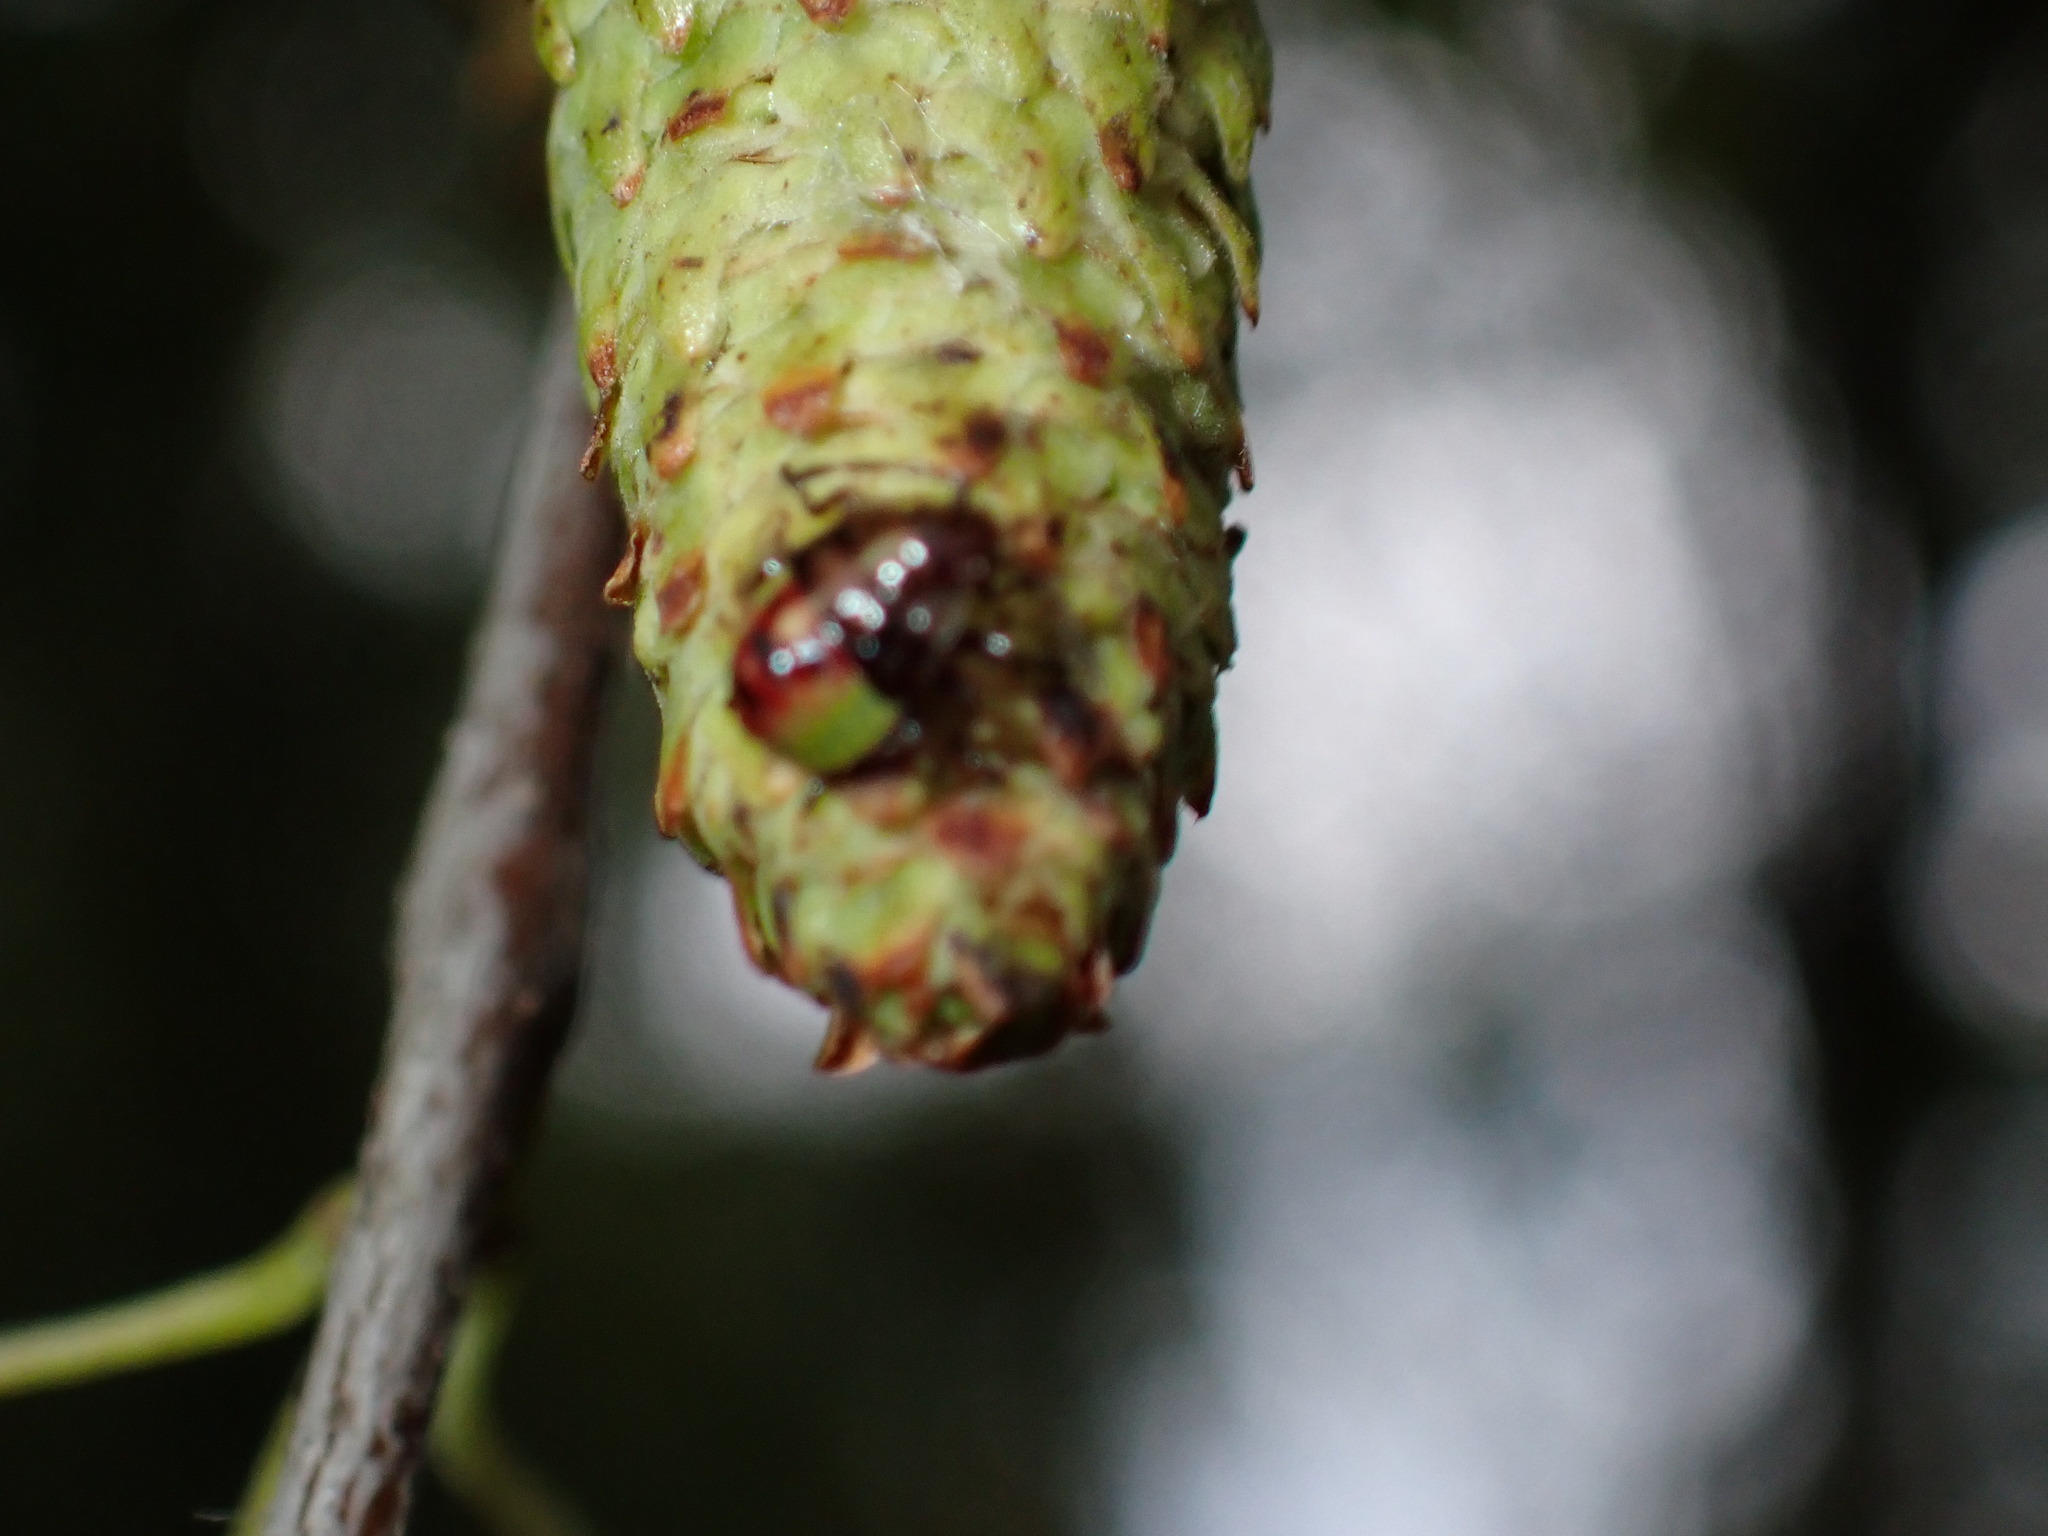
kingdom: Animalia
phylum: Arthropoda
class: Insecta
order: Hemiptera
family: Acanthosomatidae
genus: Elasmostethus
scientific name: Elasmostethus interstinctus
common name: Birch shieldbug
